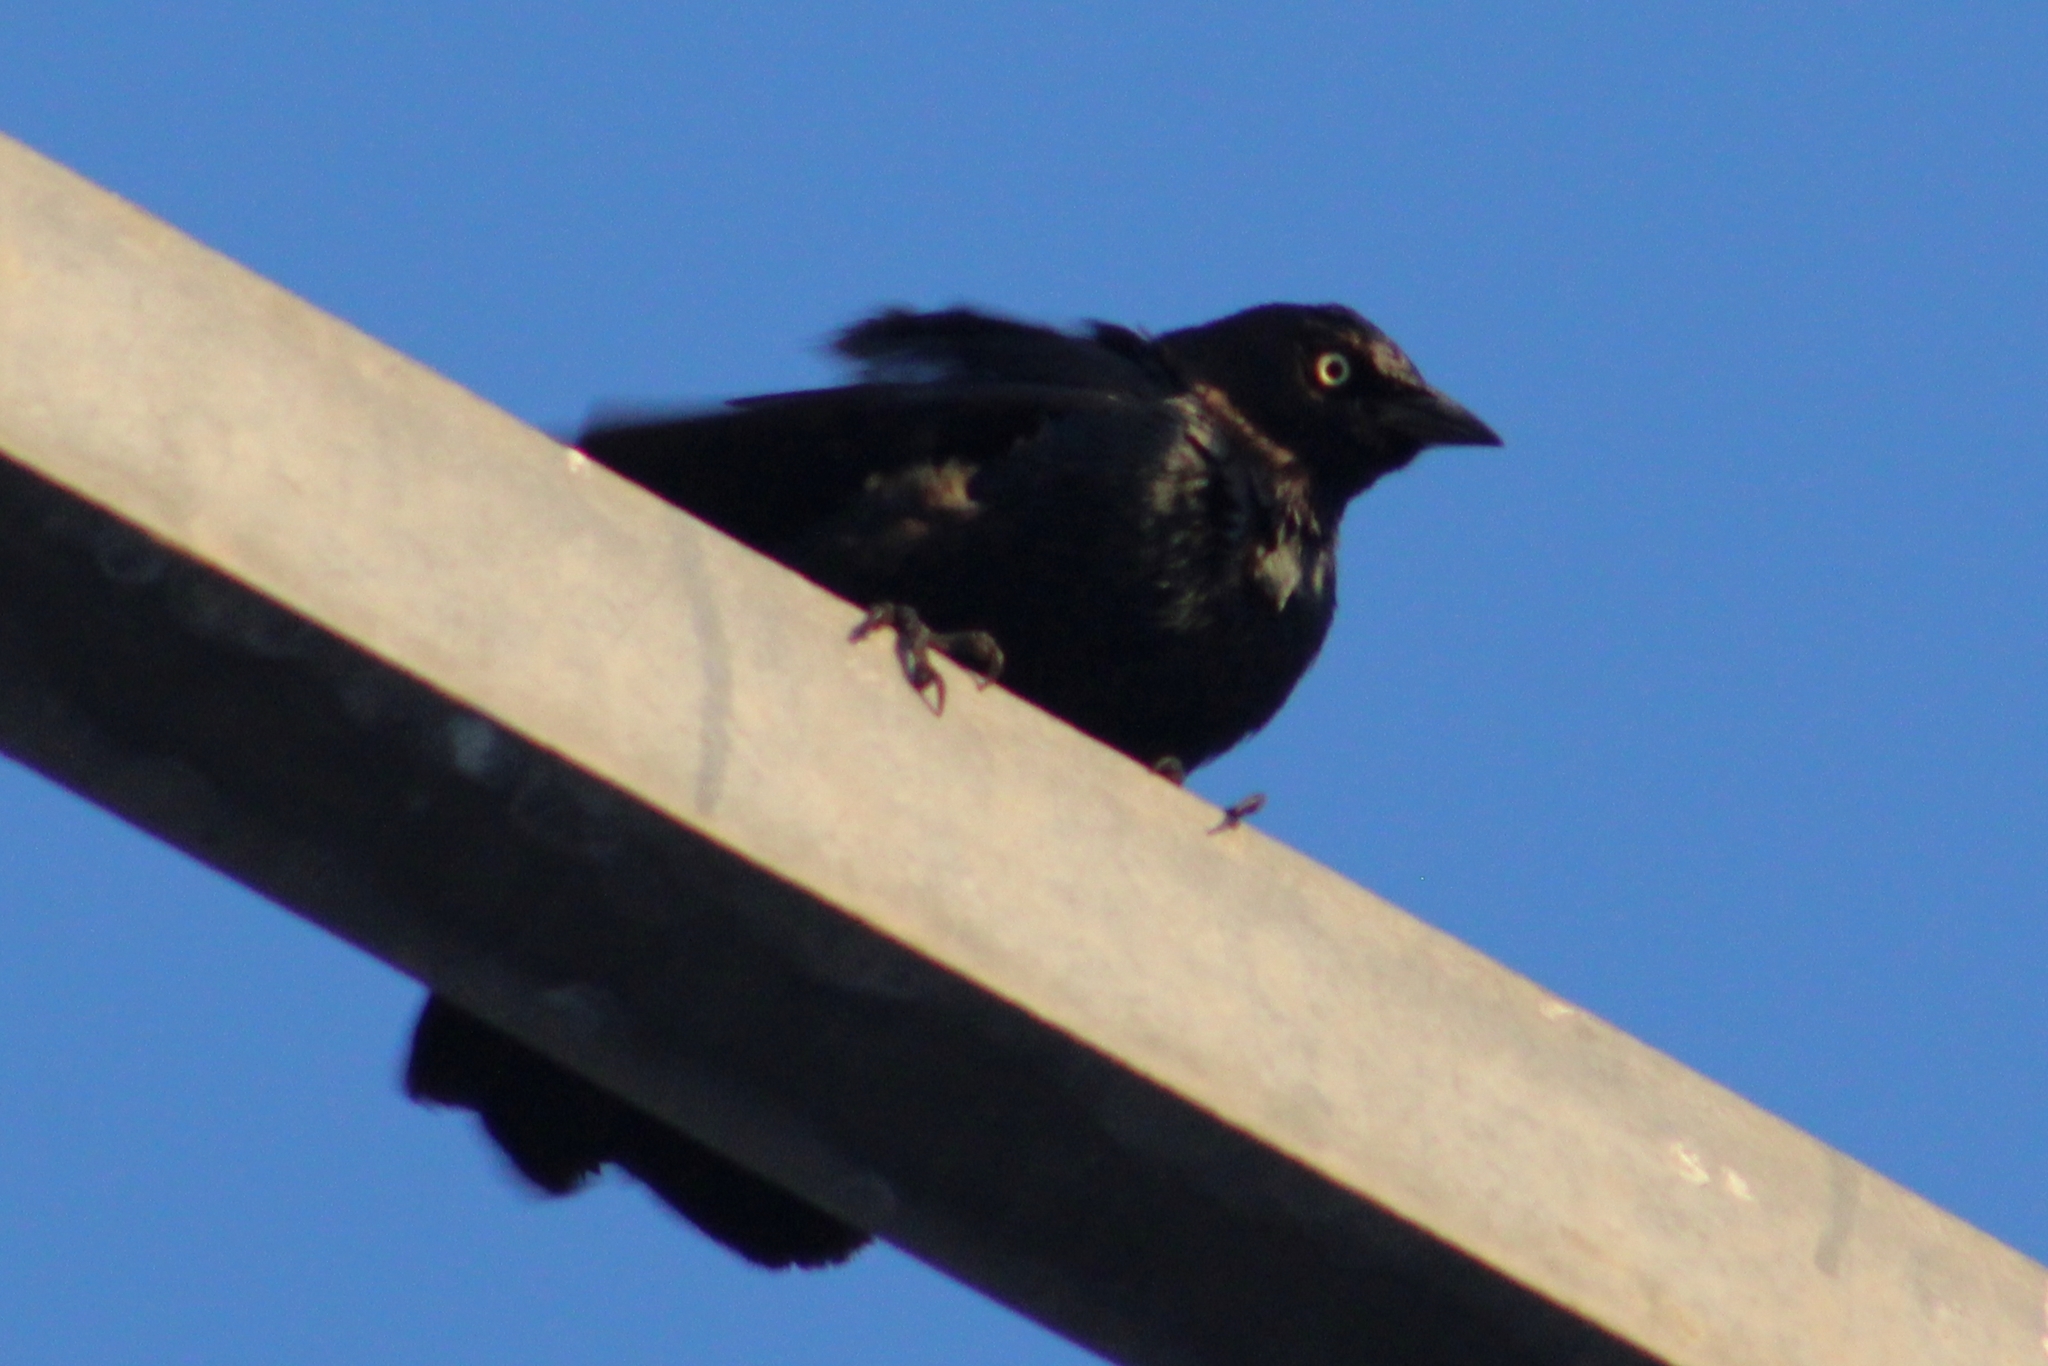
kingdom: Animalia
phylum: Chordata
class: Aves
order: Passeriformes
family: Icteridae
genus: Euphagus
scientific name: Euphagus cyanocephalus
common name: Brewer's blackbird
